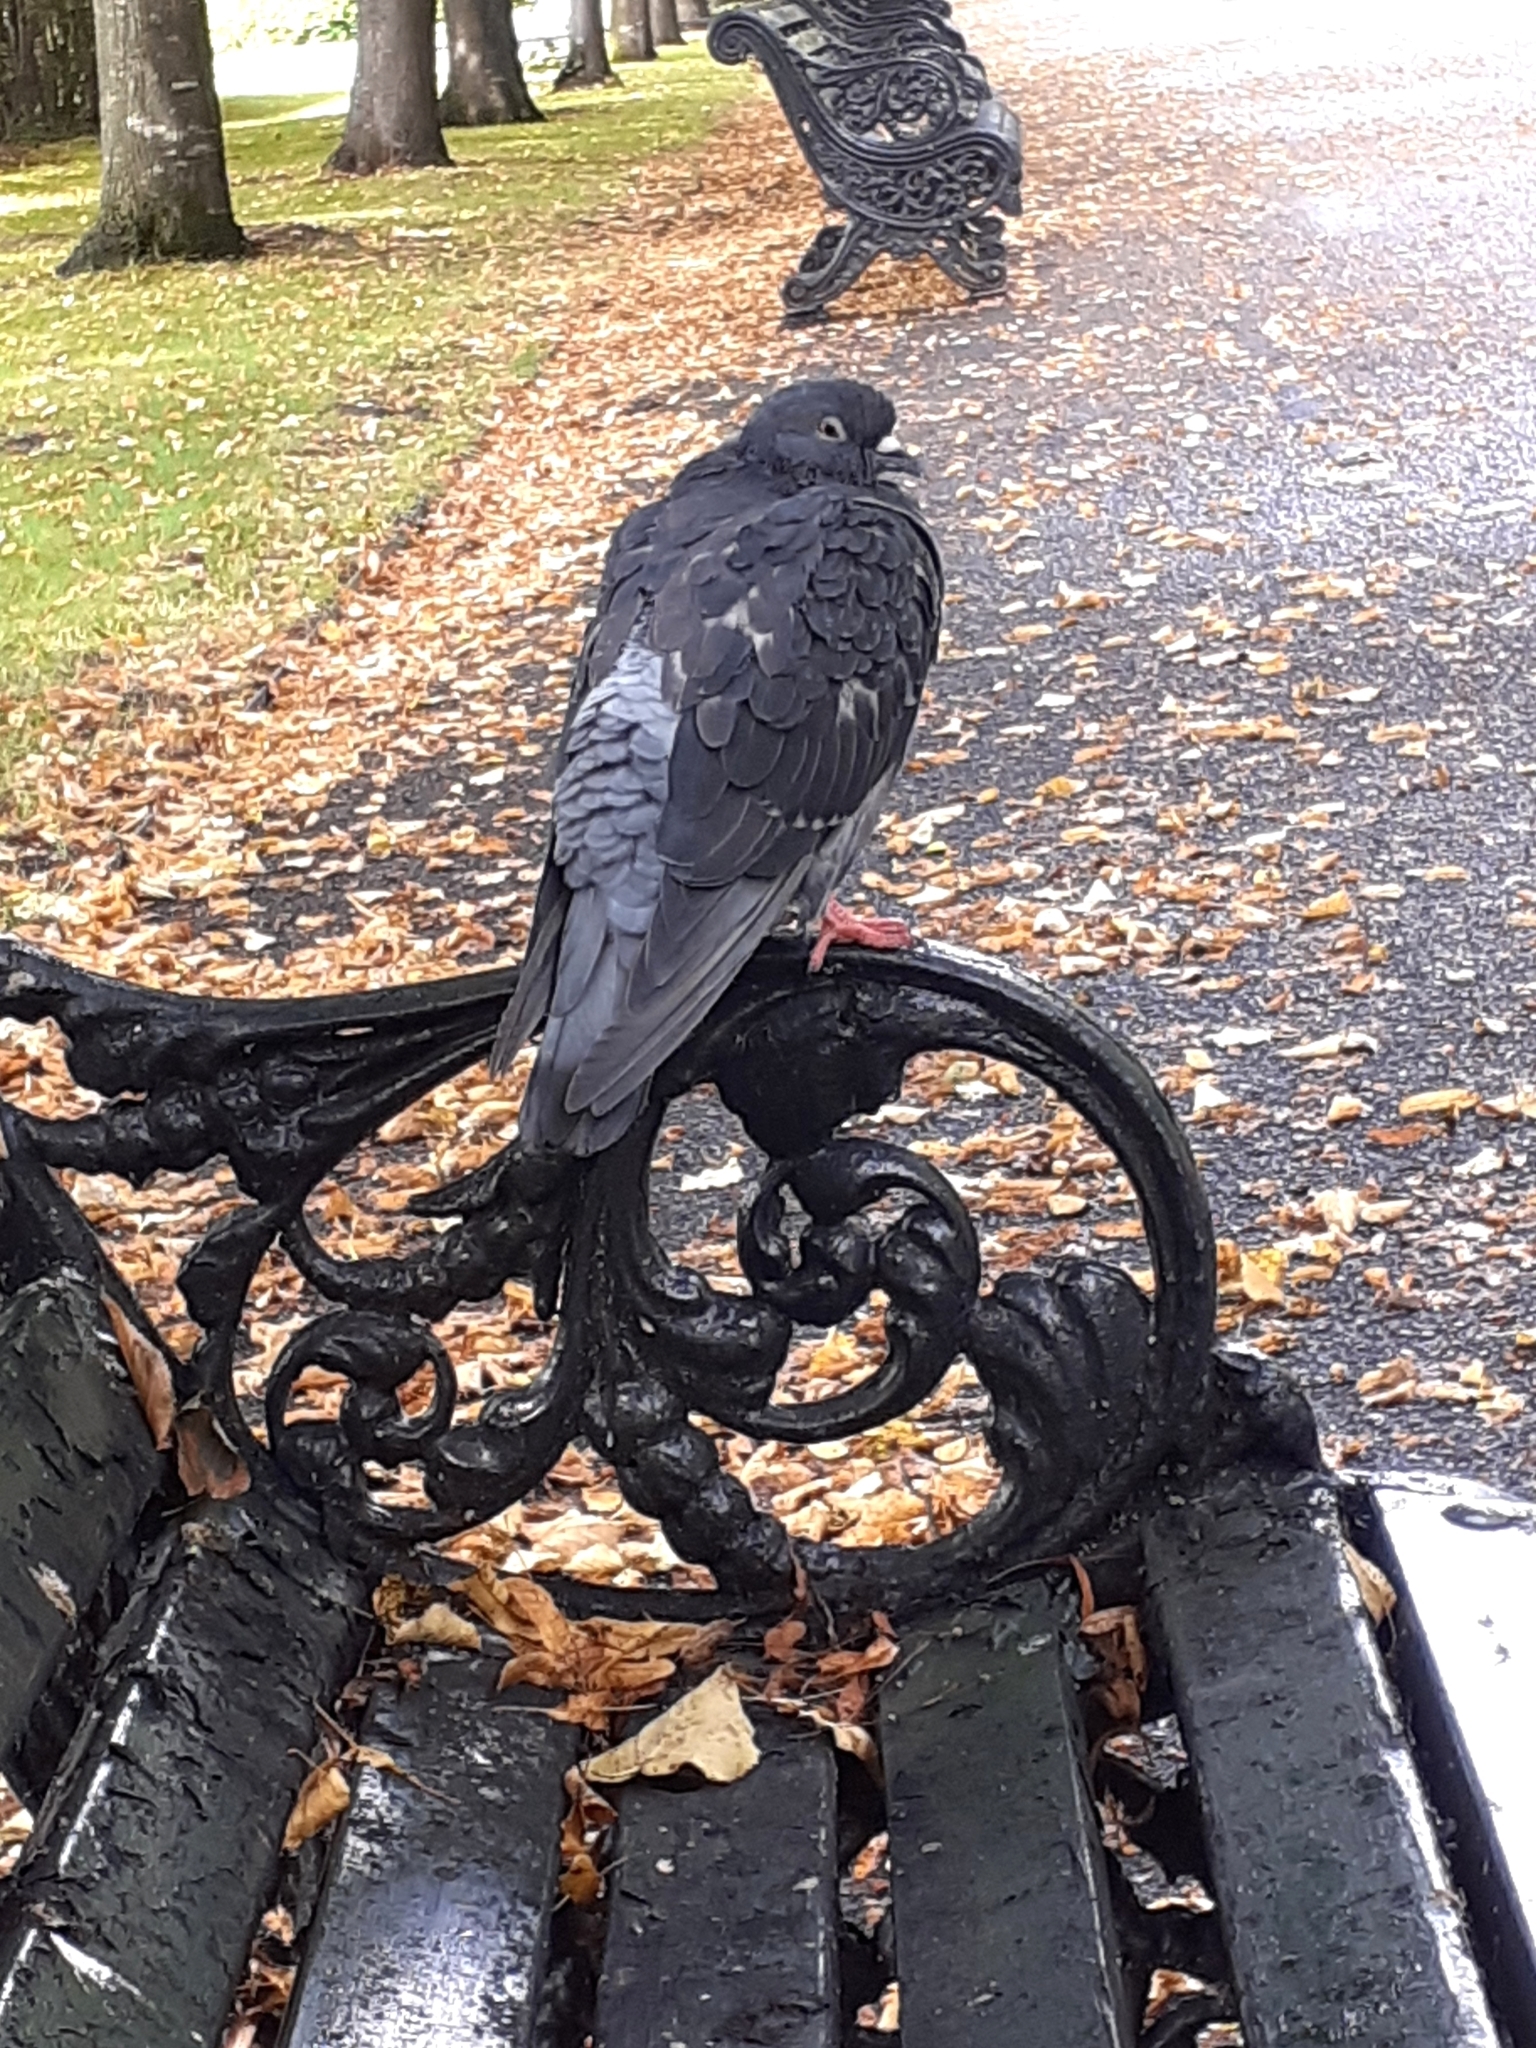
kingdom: Animalia
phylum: Chordata
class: Aves
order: Columbiformes
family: Columbidae
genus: Columba
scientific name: Columba livia
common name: Rock pigeon
